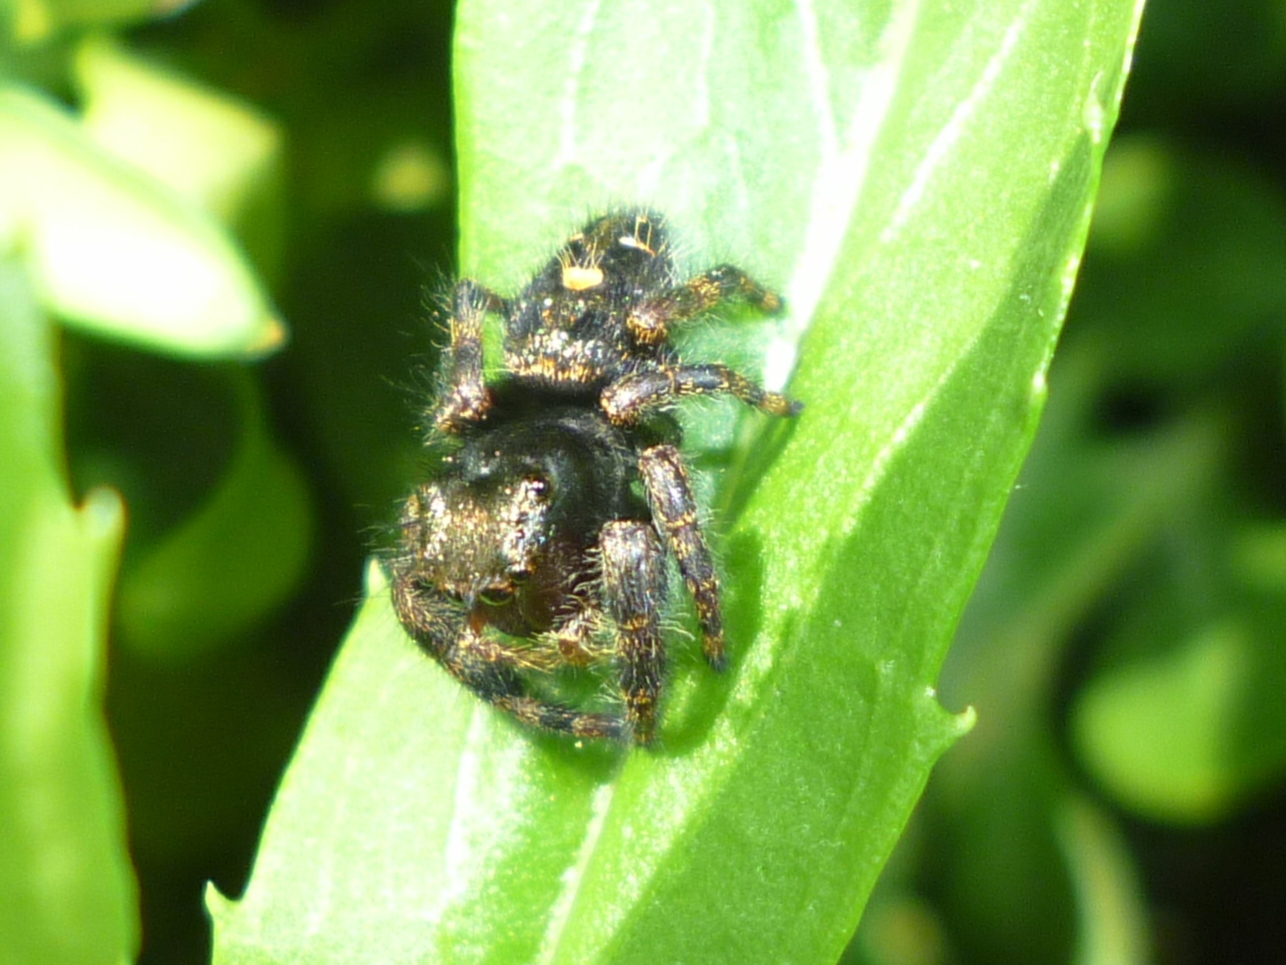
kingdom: Animalia
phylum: Arthropoda
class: Arachnida
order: Araneae
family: Salticidae
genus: Phidippus
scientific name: Phidippus audax
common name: Bold jumper
